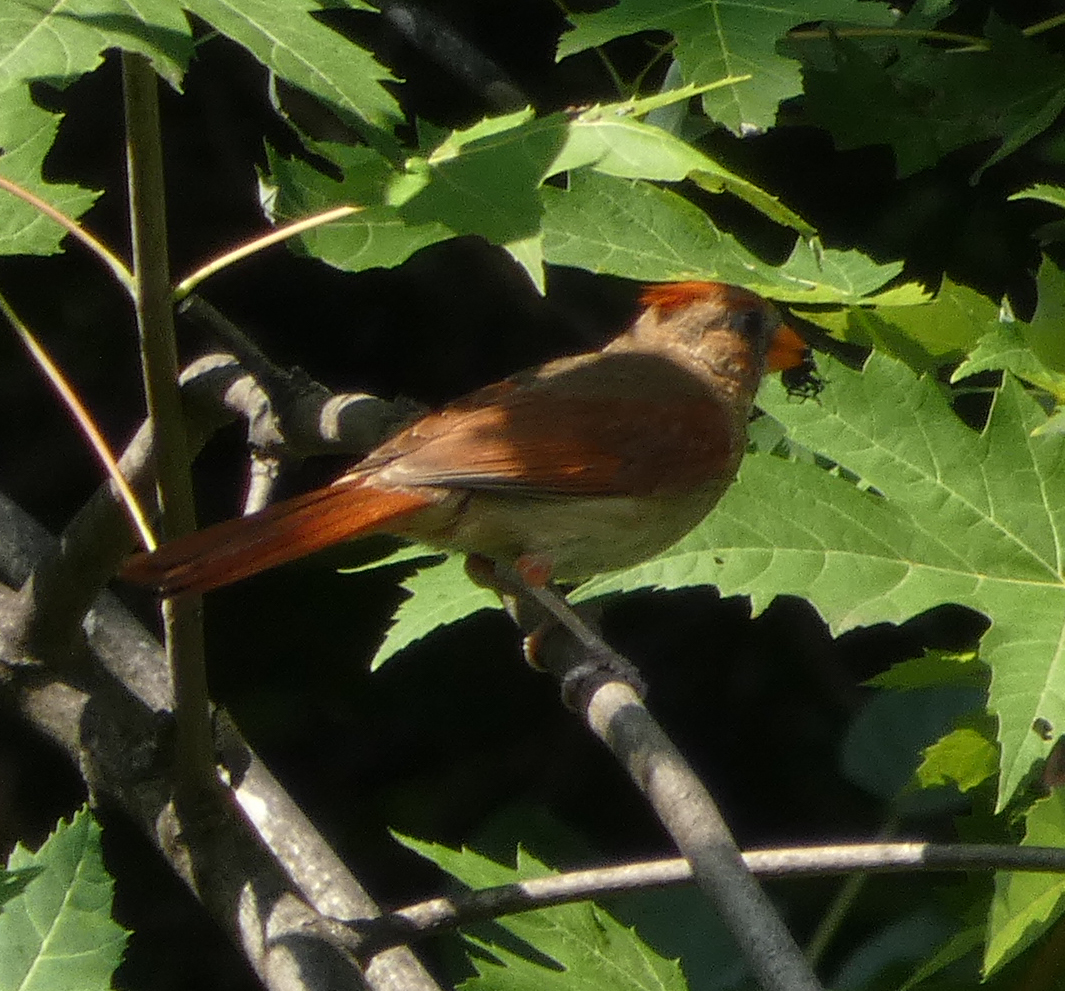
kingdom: Animalia
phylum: Chordata
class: Aves
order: Passeriformes
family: Cardinalidae
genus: Cardinalis
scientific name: Cardinalis cardinalis
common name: Northern cardinal
